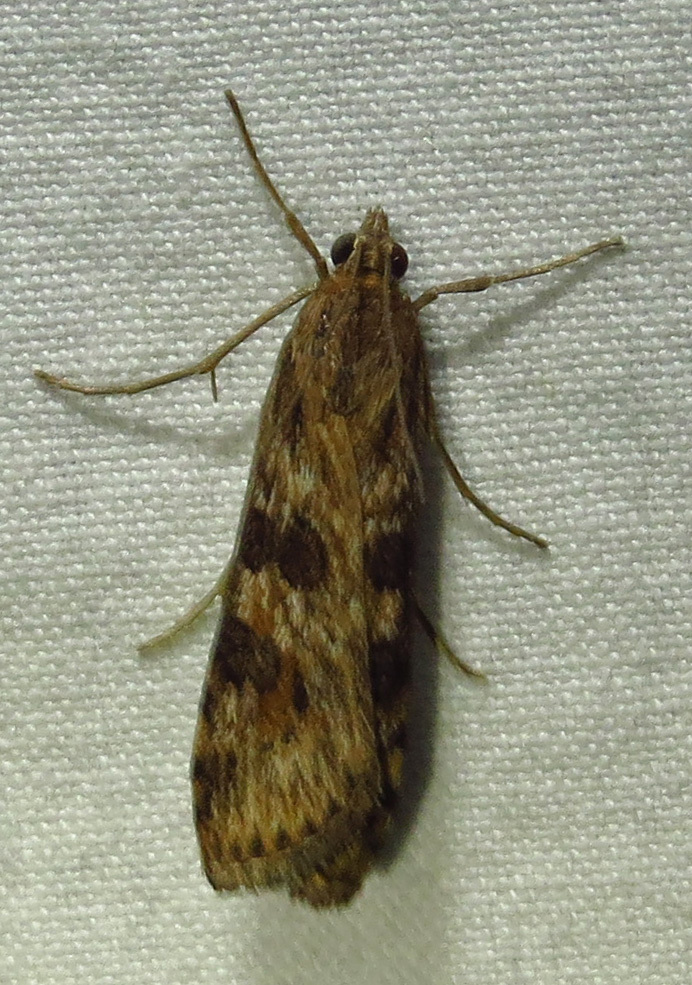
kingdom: Animalia
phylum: Arthropoda
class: Insecta
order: Lepidoptera
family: Crambidae
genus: Nomophila
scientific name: Nomophila nearctica
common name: American rush veneer
